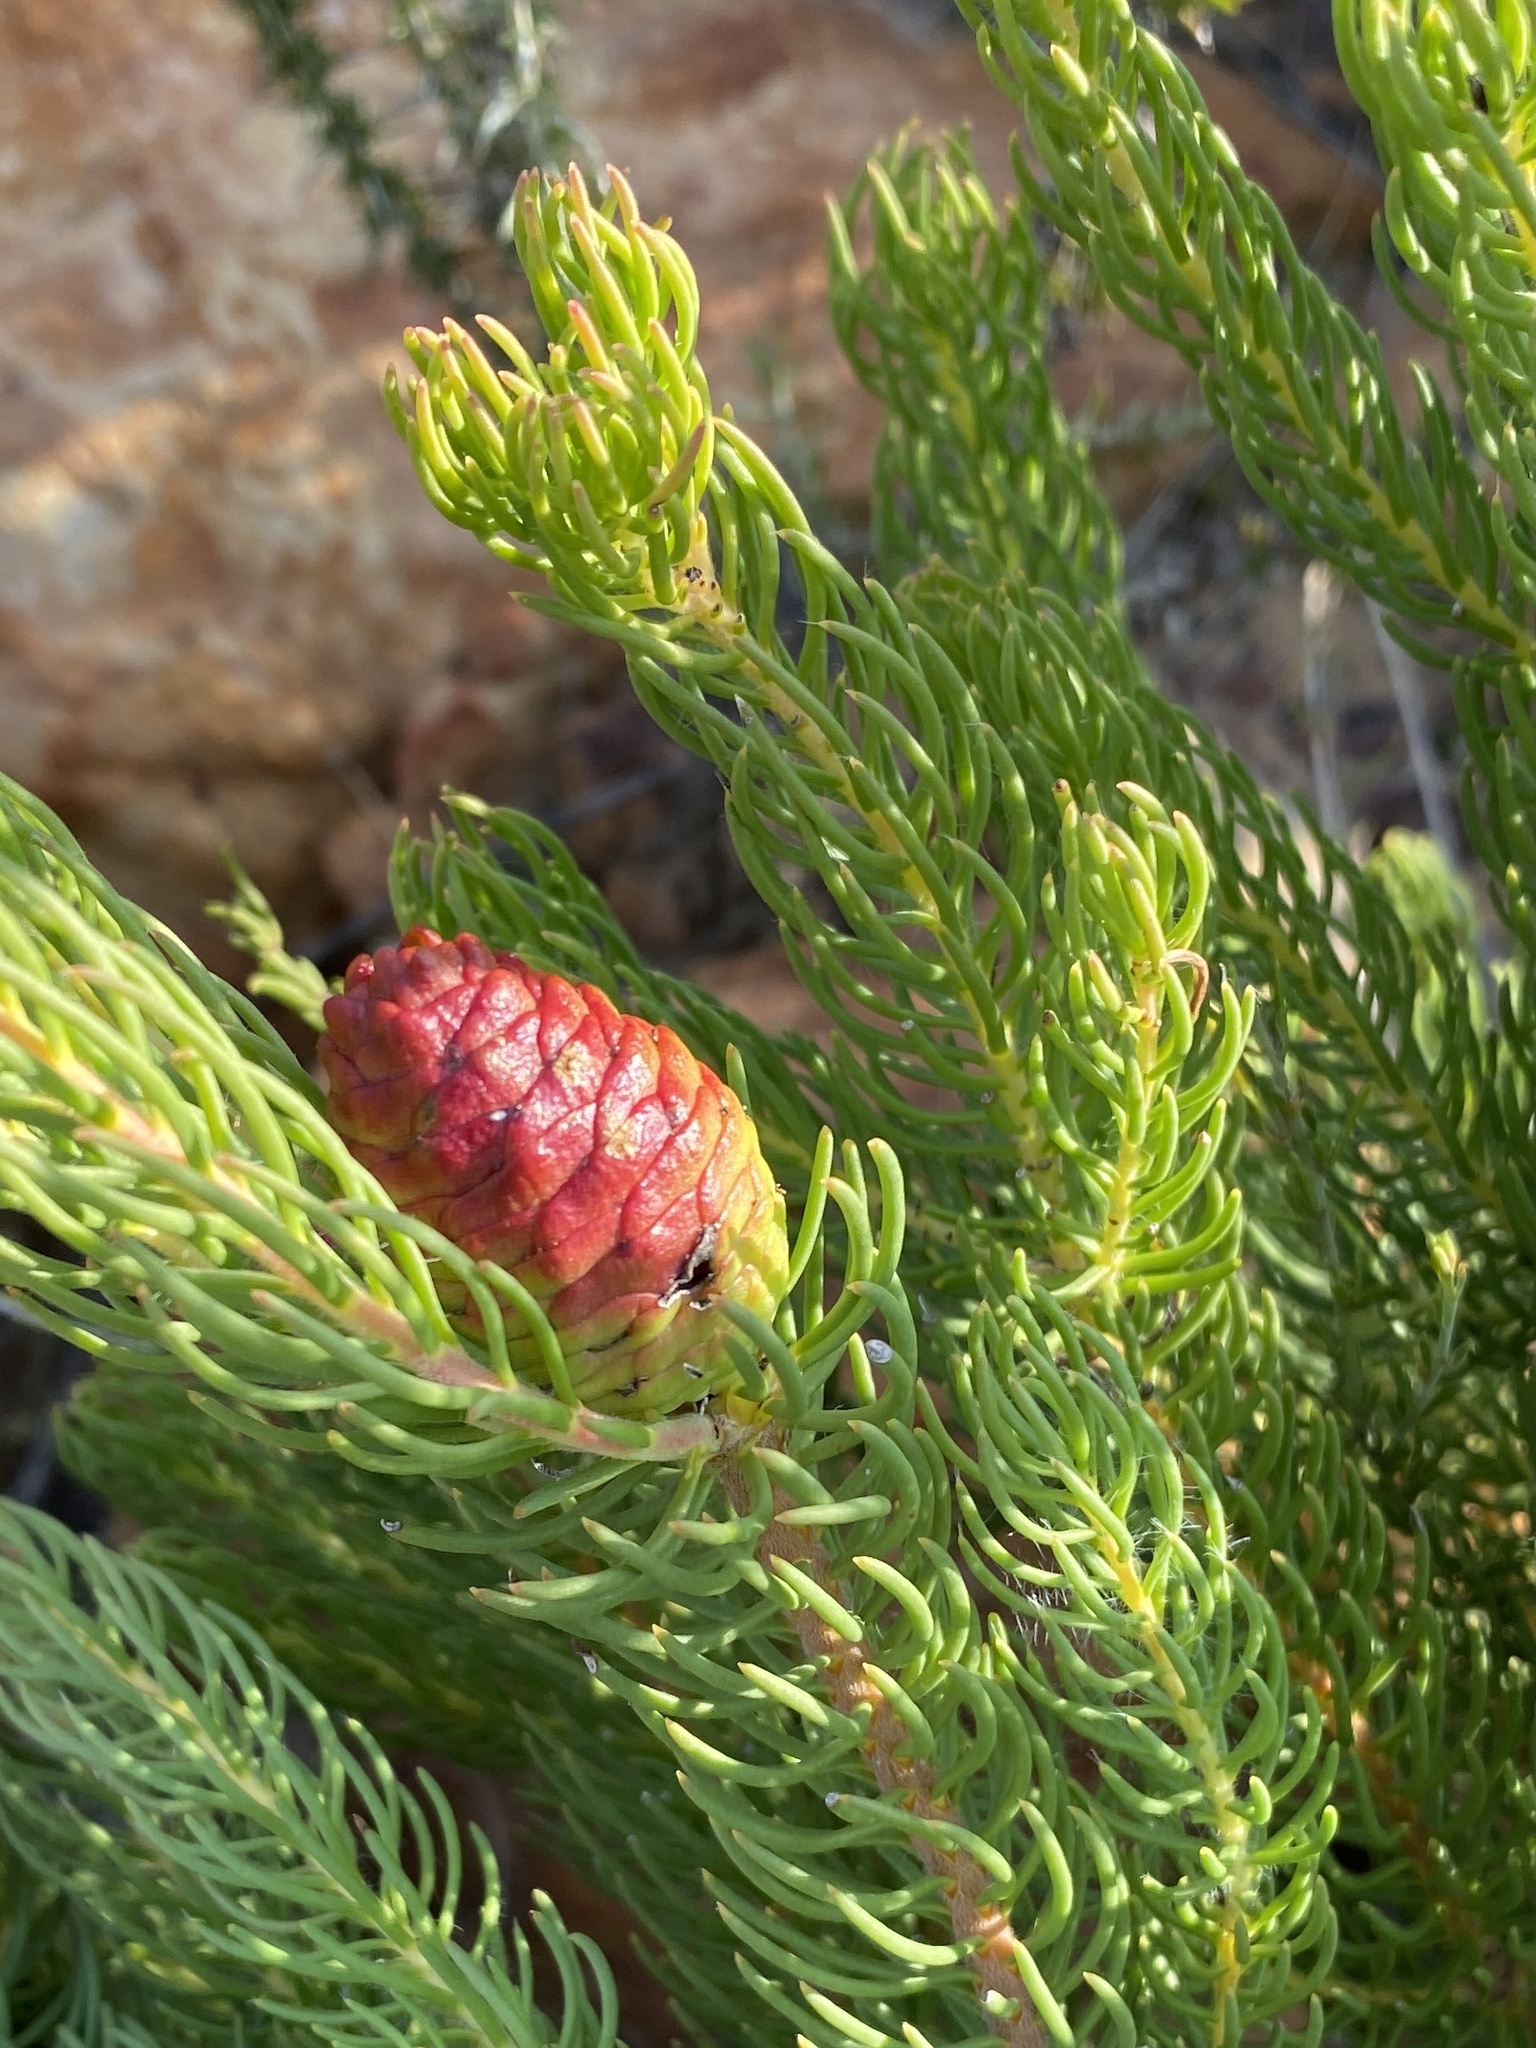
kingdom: Plantae
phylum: Tracheophyta
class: Magnoliopsida
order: Proteales
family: Proteaceae
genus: Leucadendron
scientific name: Leucadendron teretifolium
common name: Needle-leaf conebush
